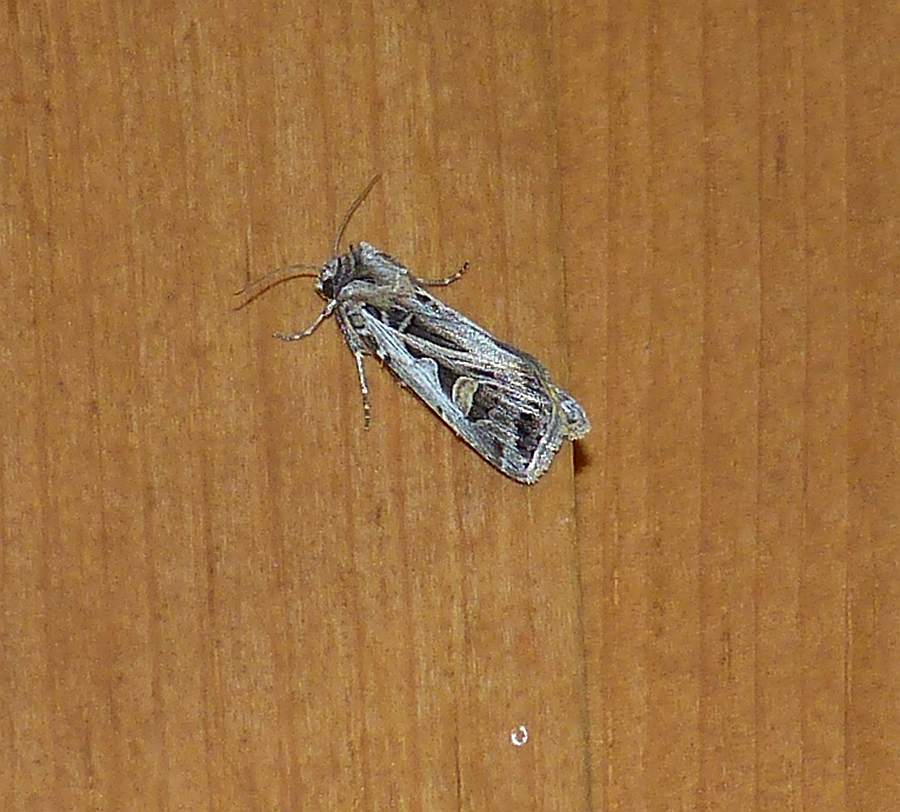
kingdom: Animalia
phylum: Arthropoda
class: Insecta
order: Lepidoptera
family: Noctuidae
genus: Feltia
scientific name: Feltia jaculifera
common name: Dingy cutworm moth
